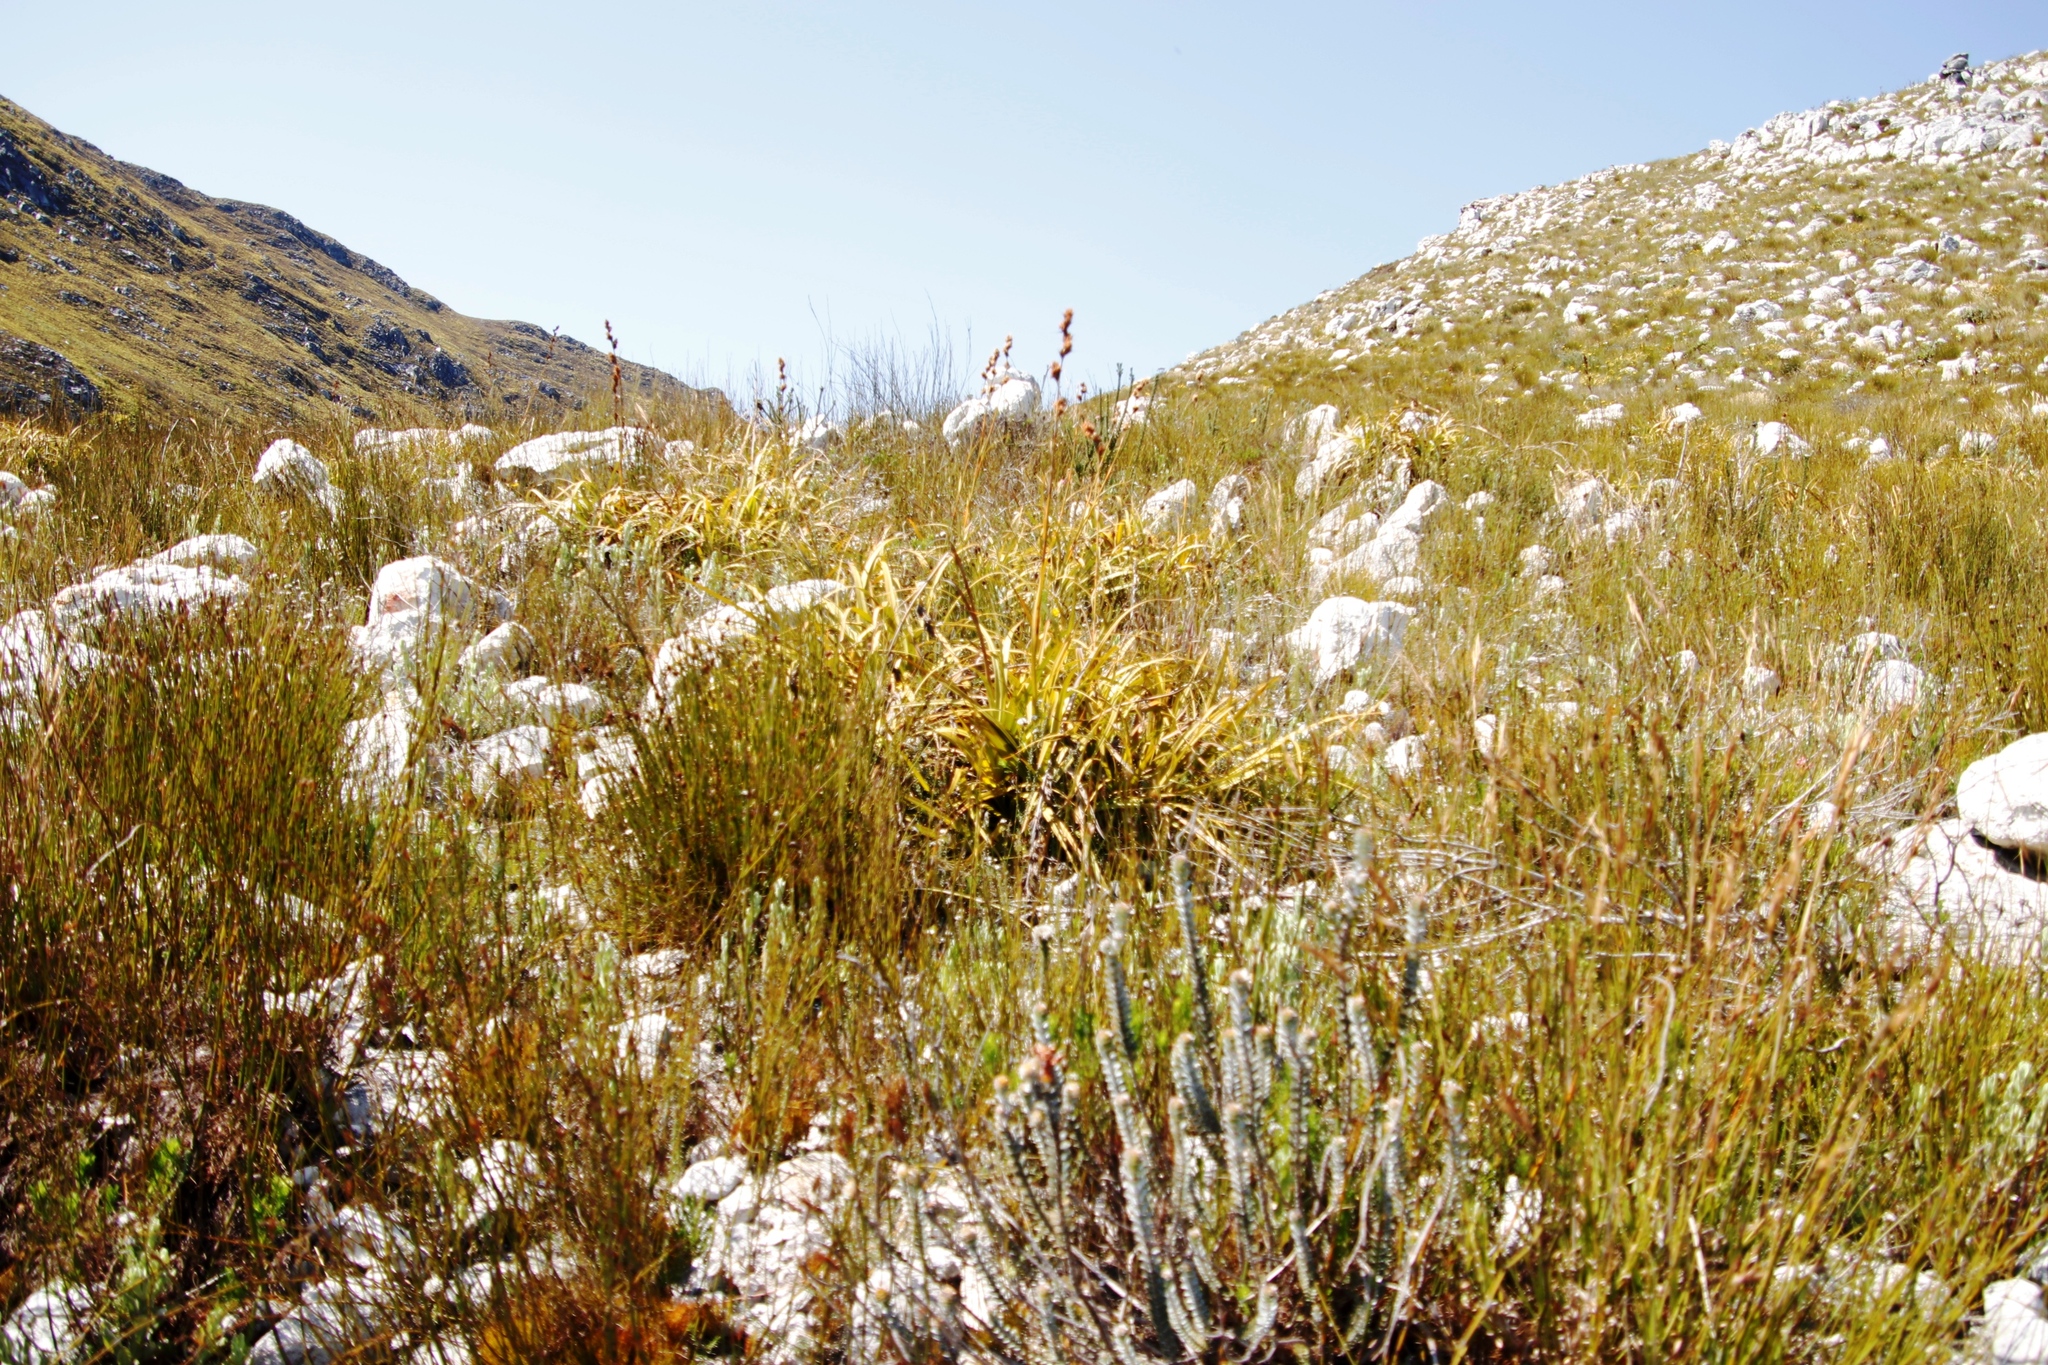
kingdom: Plantae
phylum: Tracheophyta
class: Liliopsida
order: Poales
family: Cyperaceae
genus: Tetraria
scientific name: Tetraria thermalis
